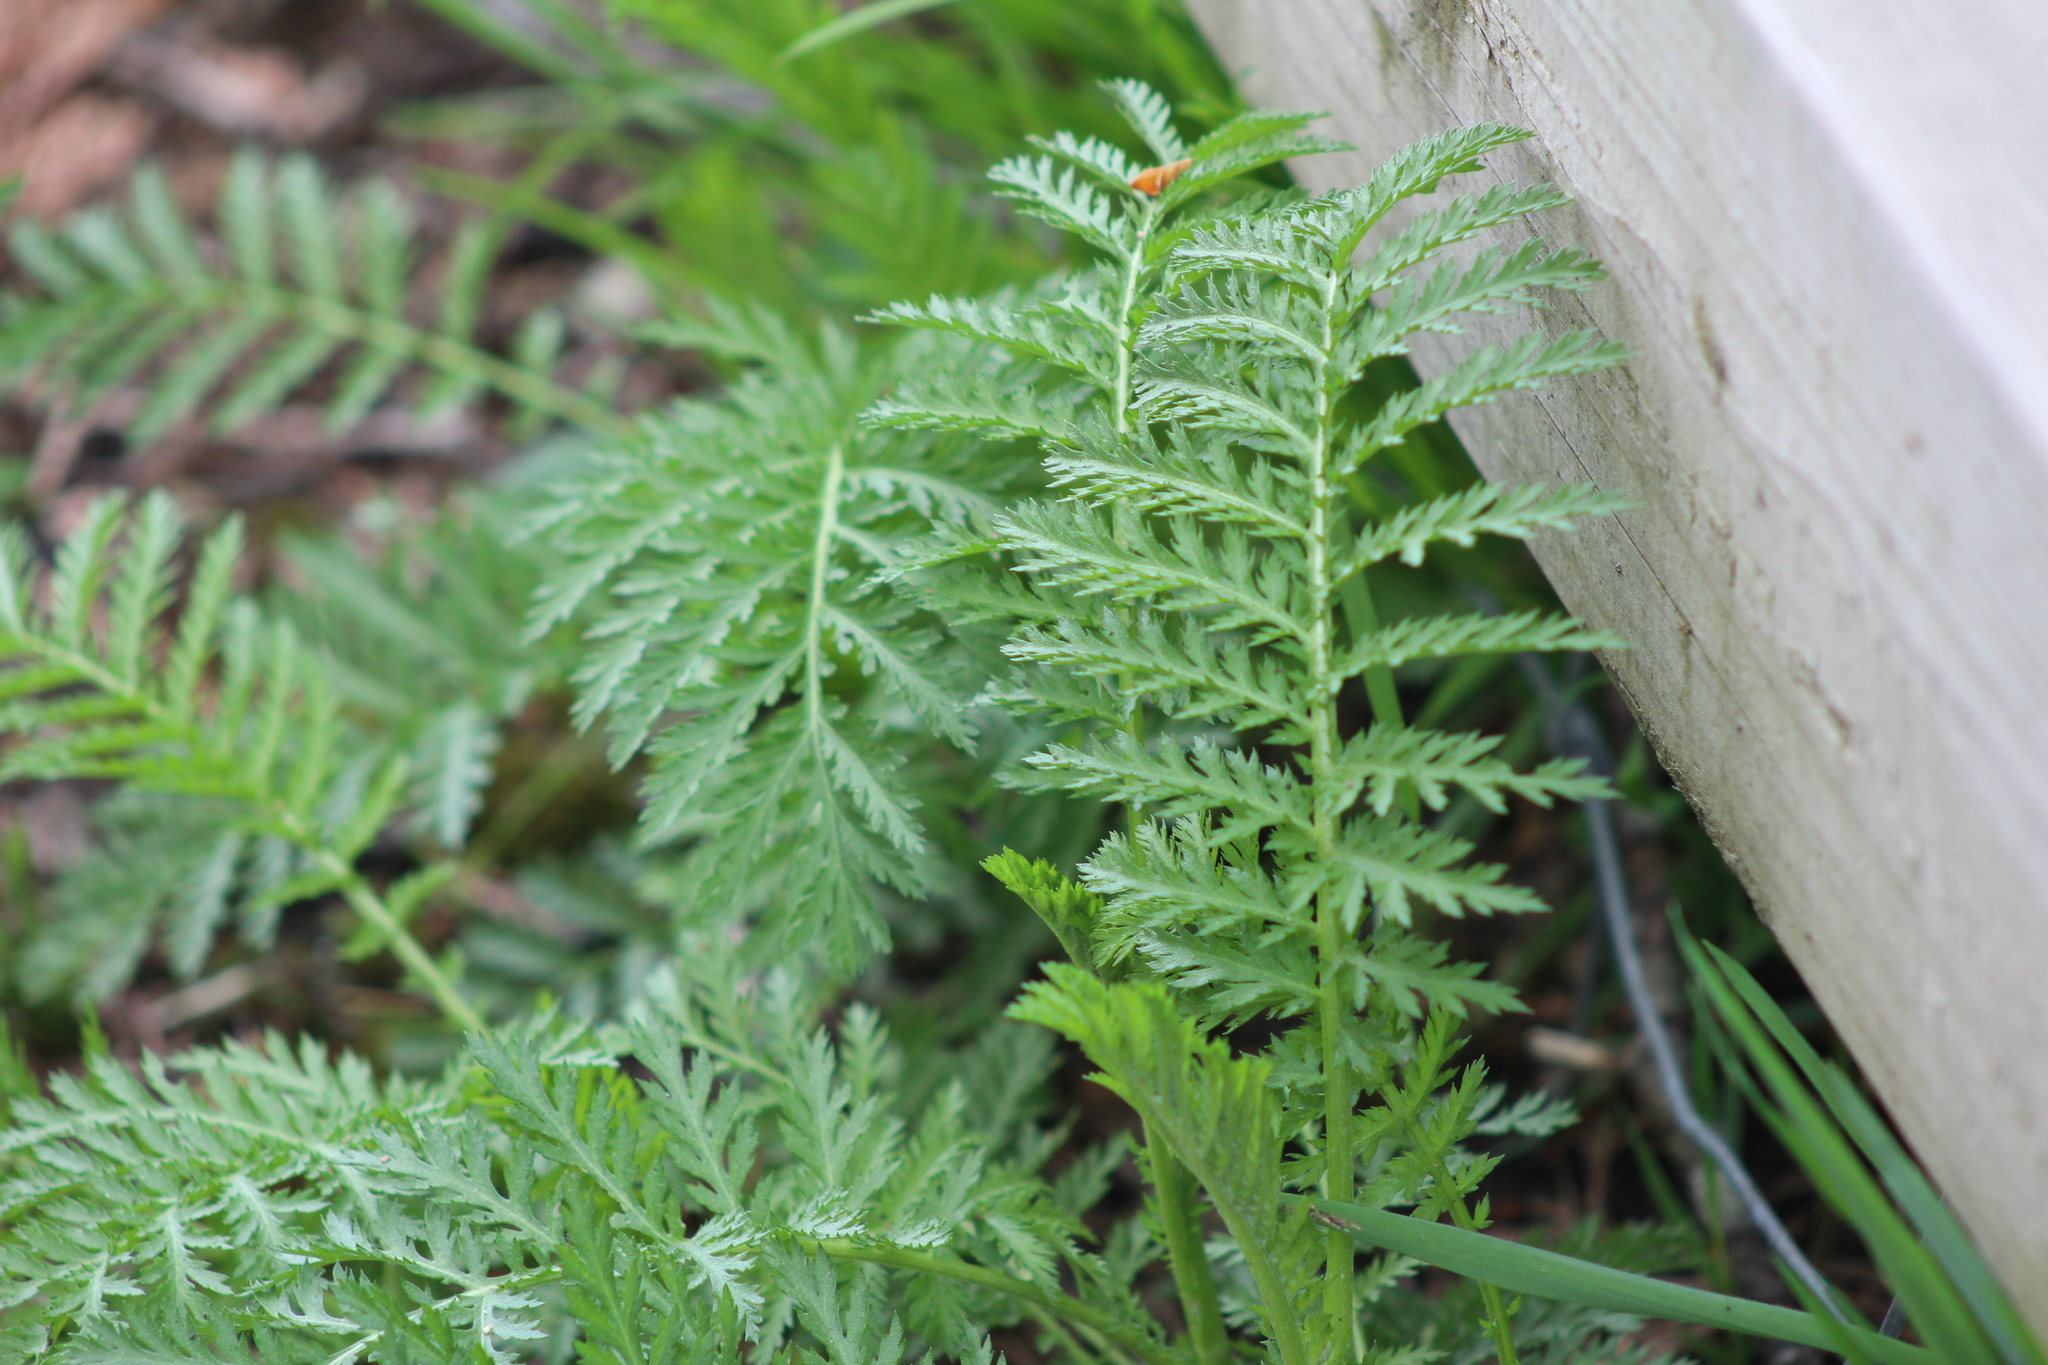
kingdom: Plantae
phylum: Tracheophyta
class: Magnoliopsida
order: Asterales
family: Asteraceae
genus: Tanacetum
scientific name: Tanacetum vulgare
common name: Common tansy
